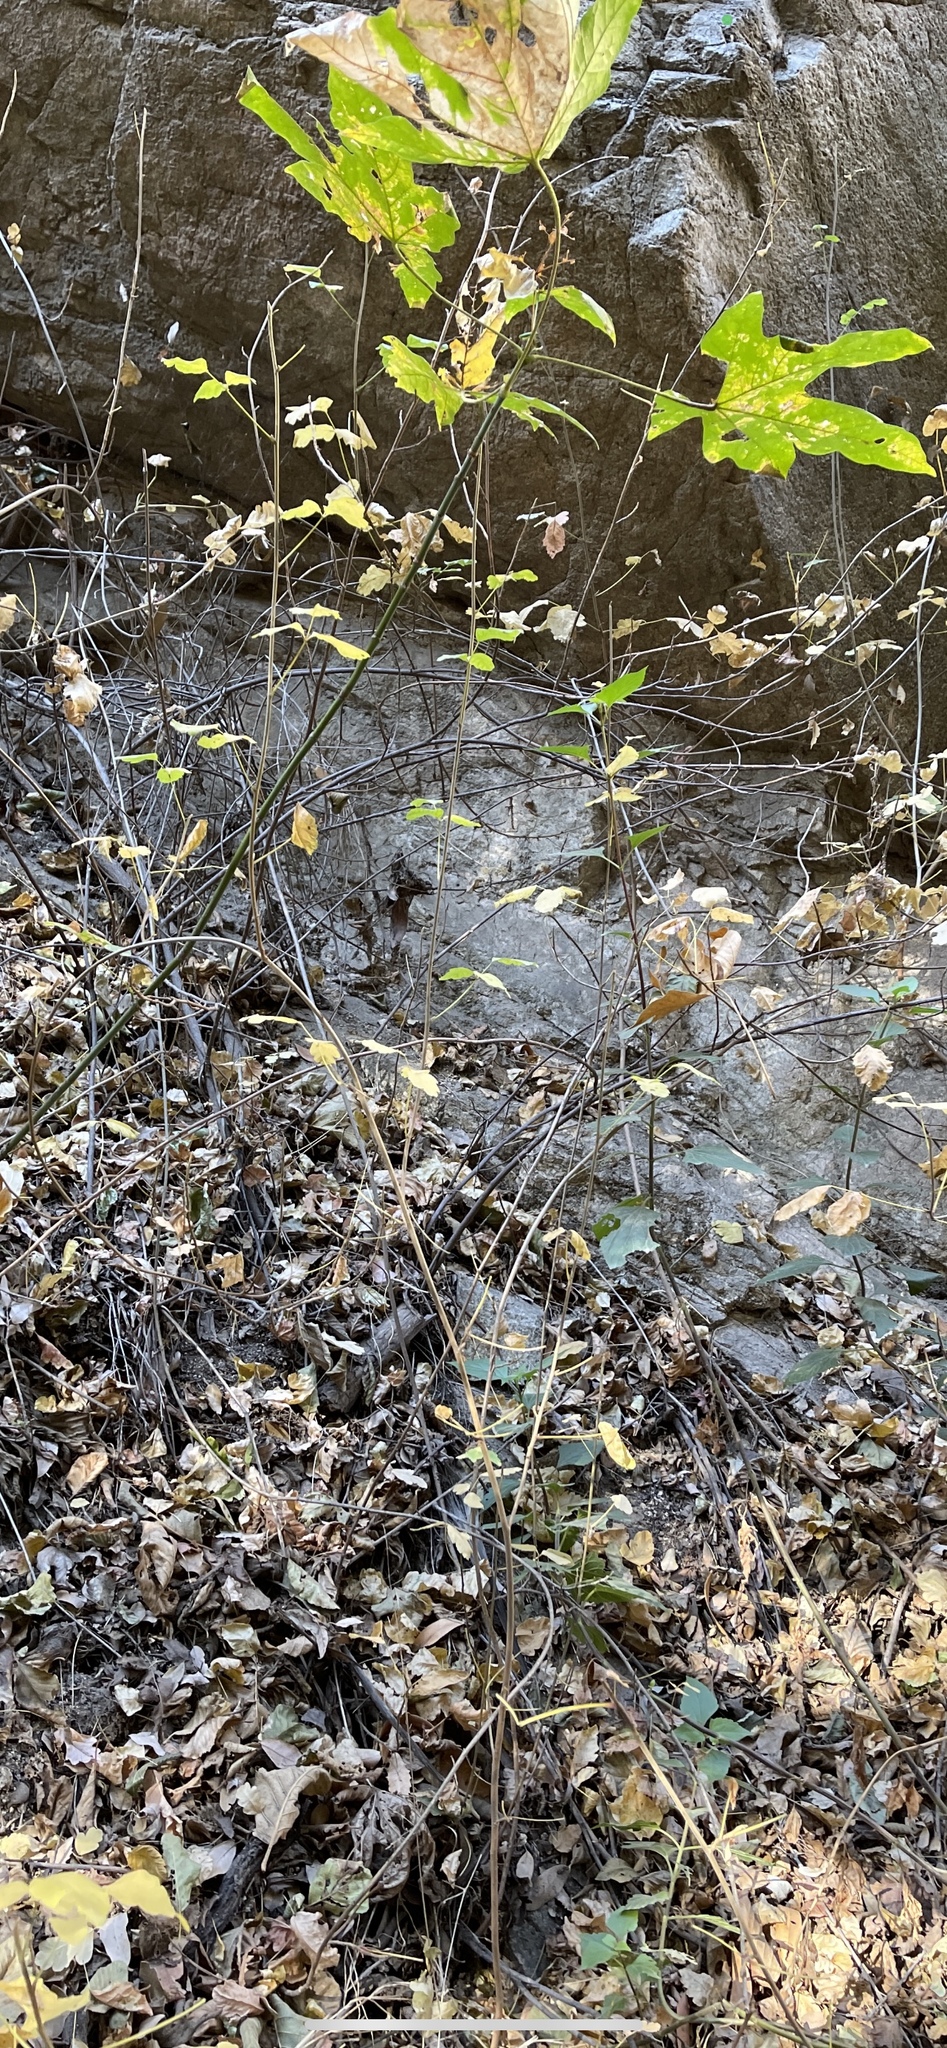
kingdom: Plantae
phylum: Tracheophyta
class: Magnoliopsida
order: Sapindales
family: Anacardiaceae
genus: Toxicodendron
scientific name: Toxicodendron diversilobum
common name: Pacific poison-oak
